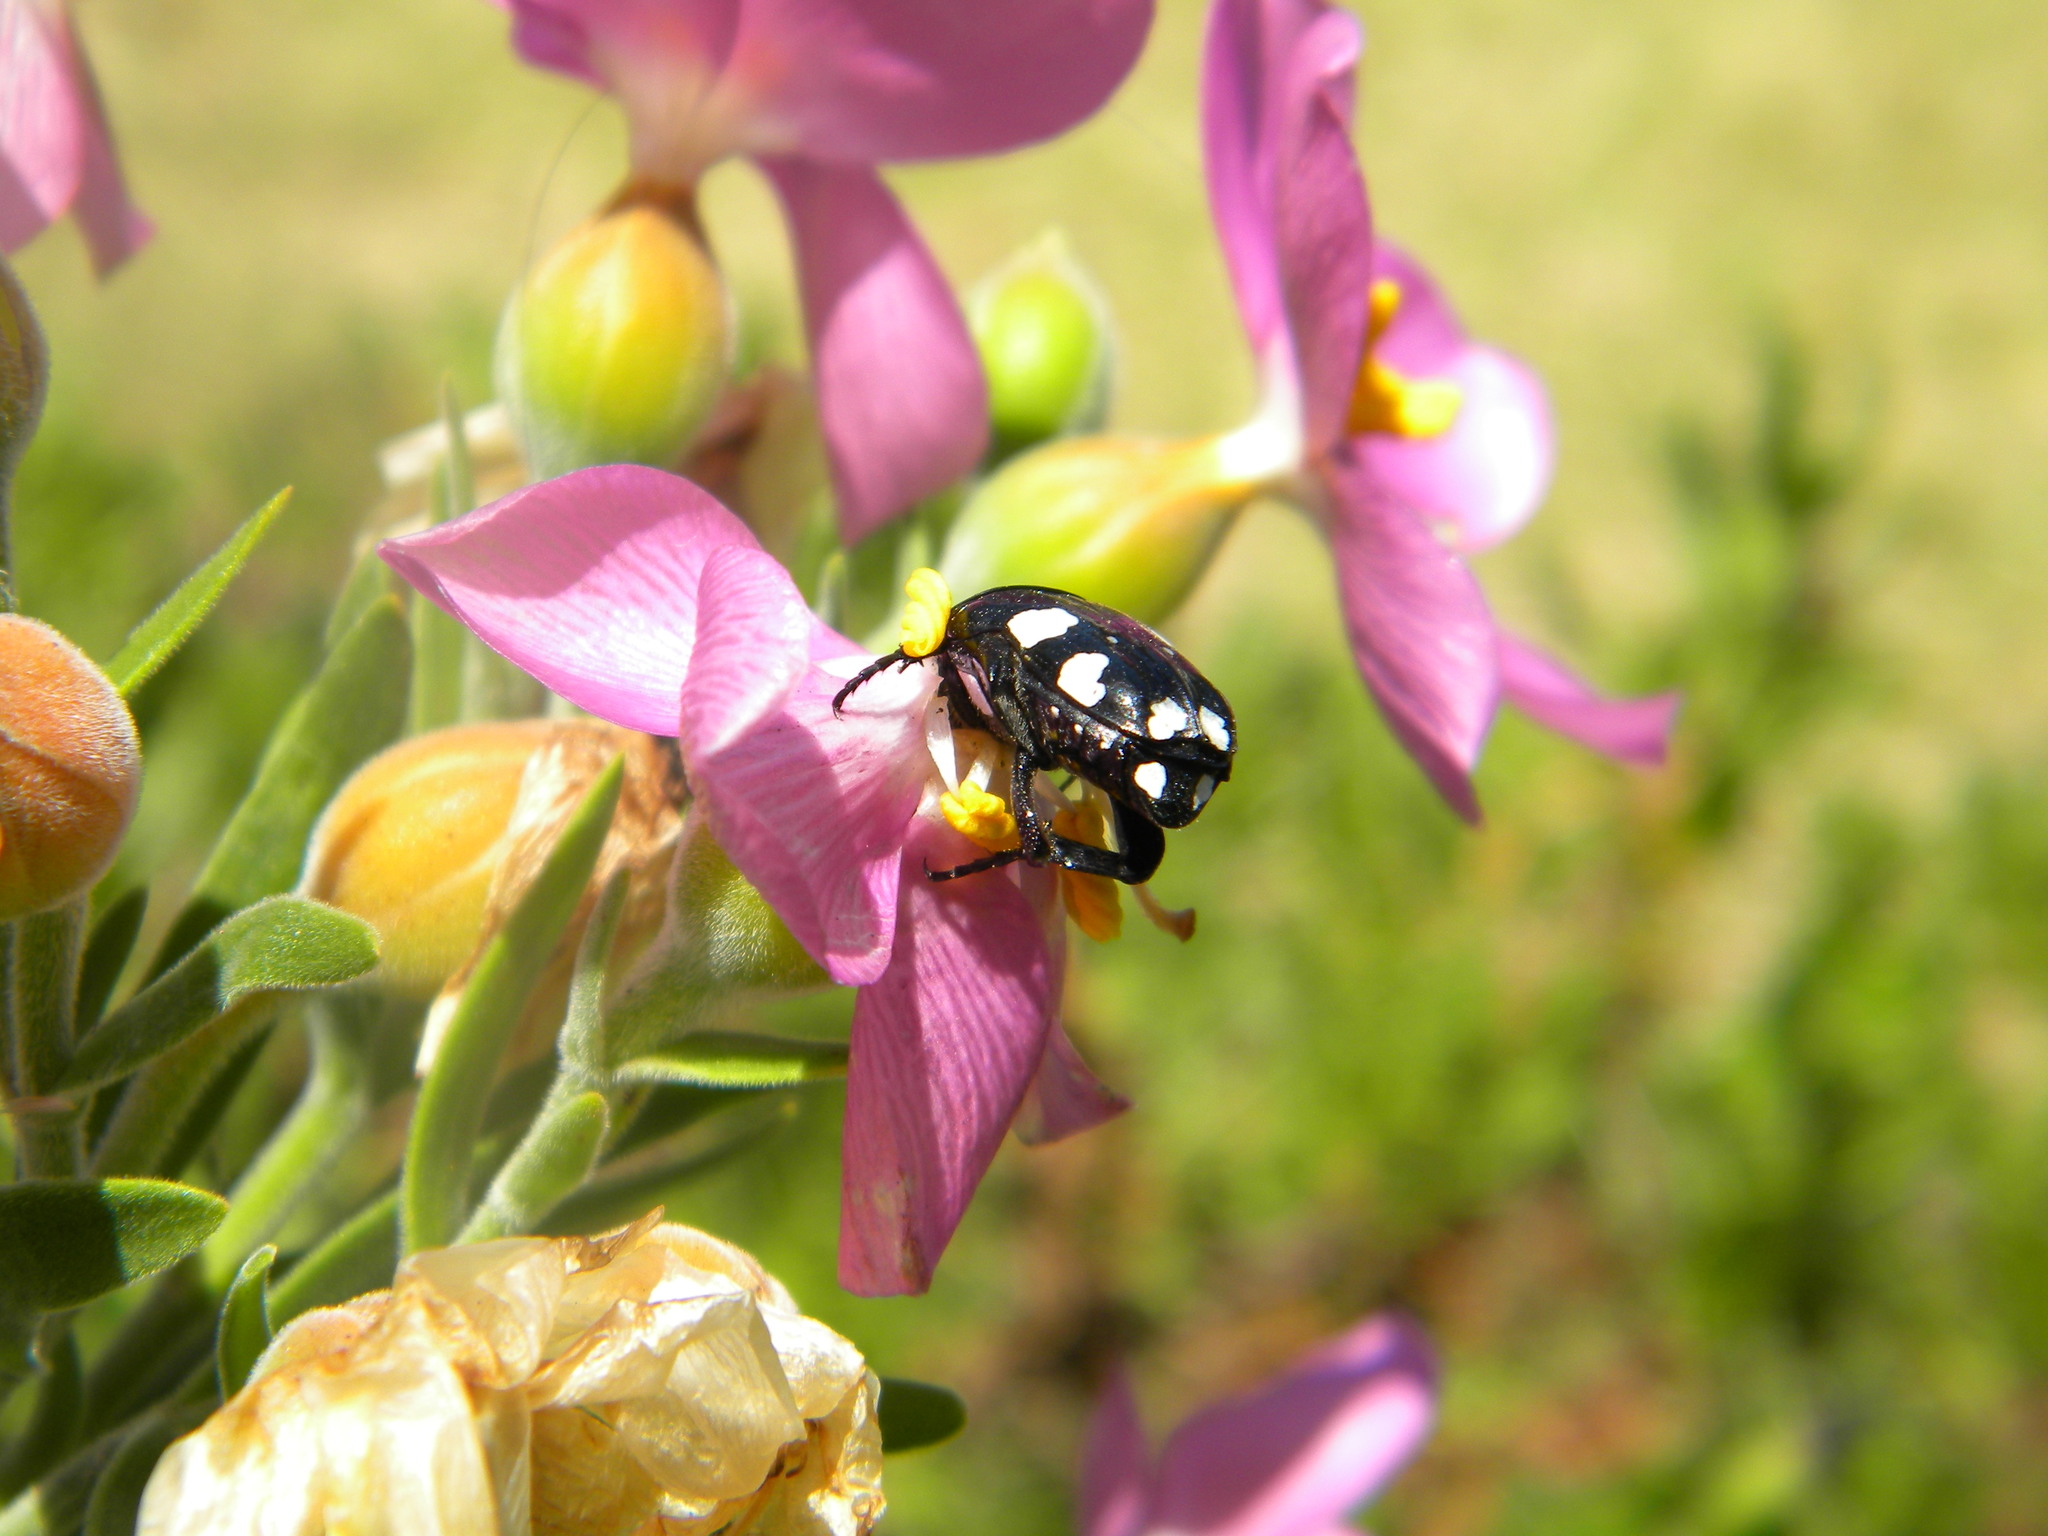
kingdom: Animalia
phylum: Arthropoda
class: Insecta
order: Coleoptera
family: Scarabaeidae
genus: Mausoleopsis
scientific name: Mausoleopsis amabilis
